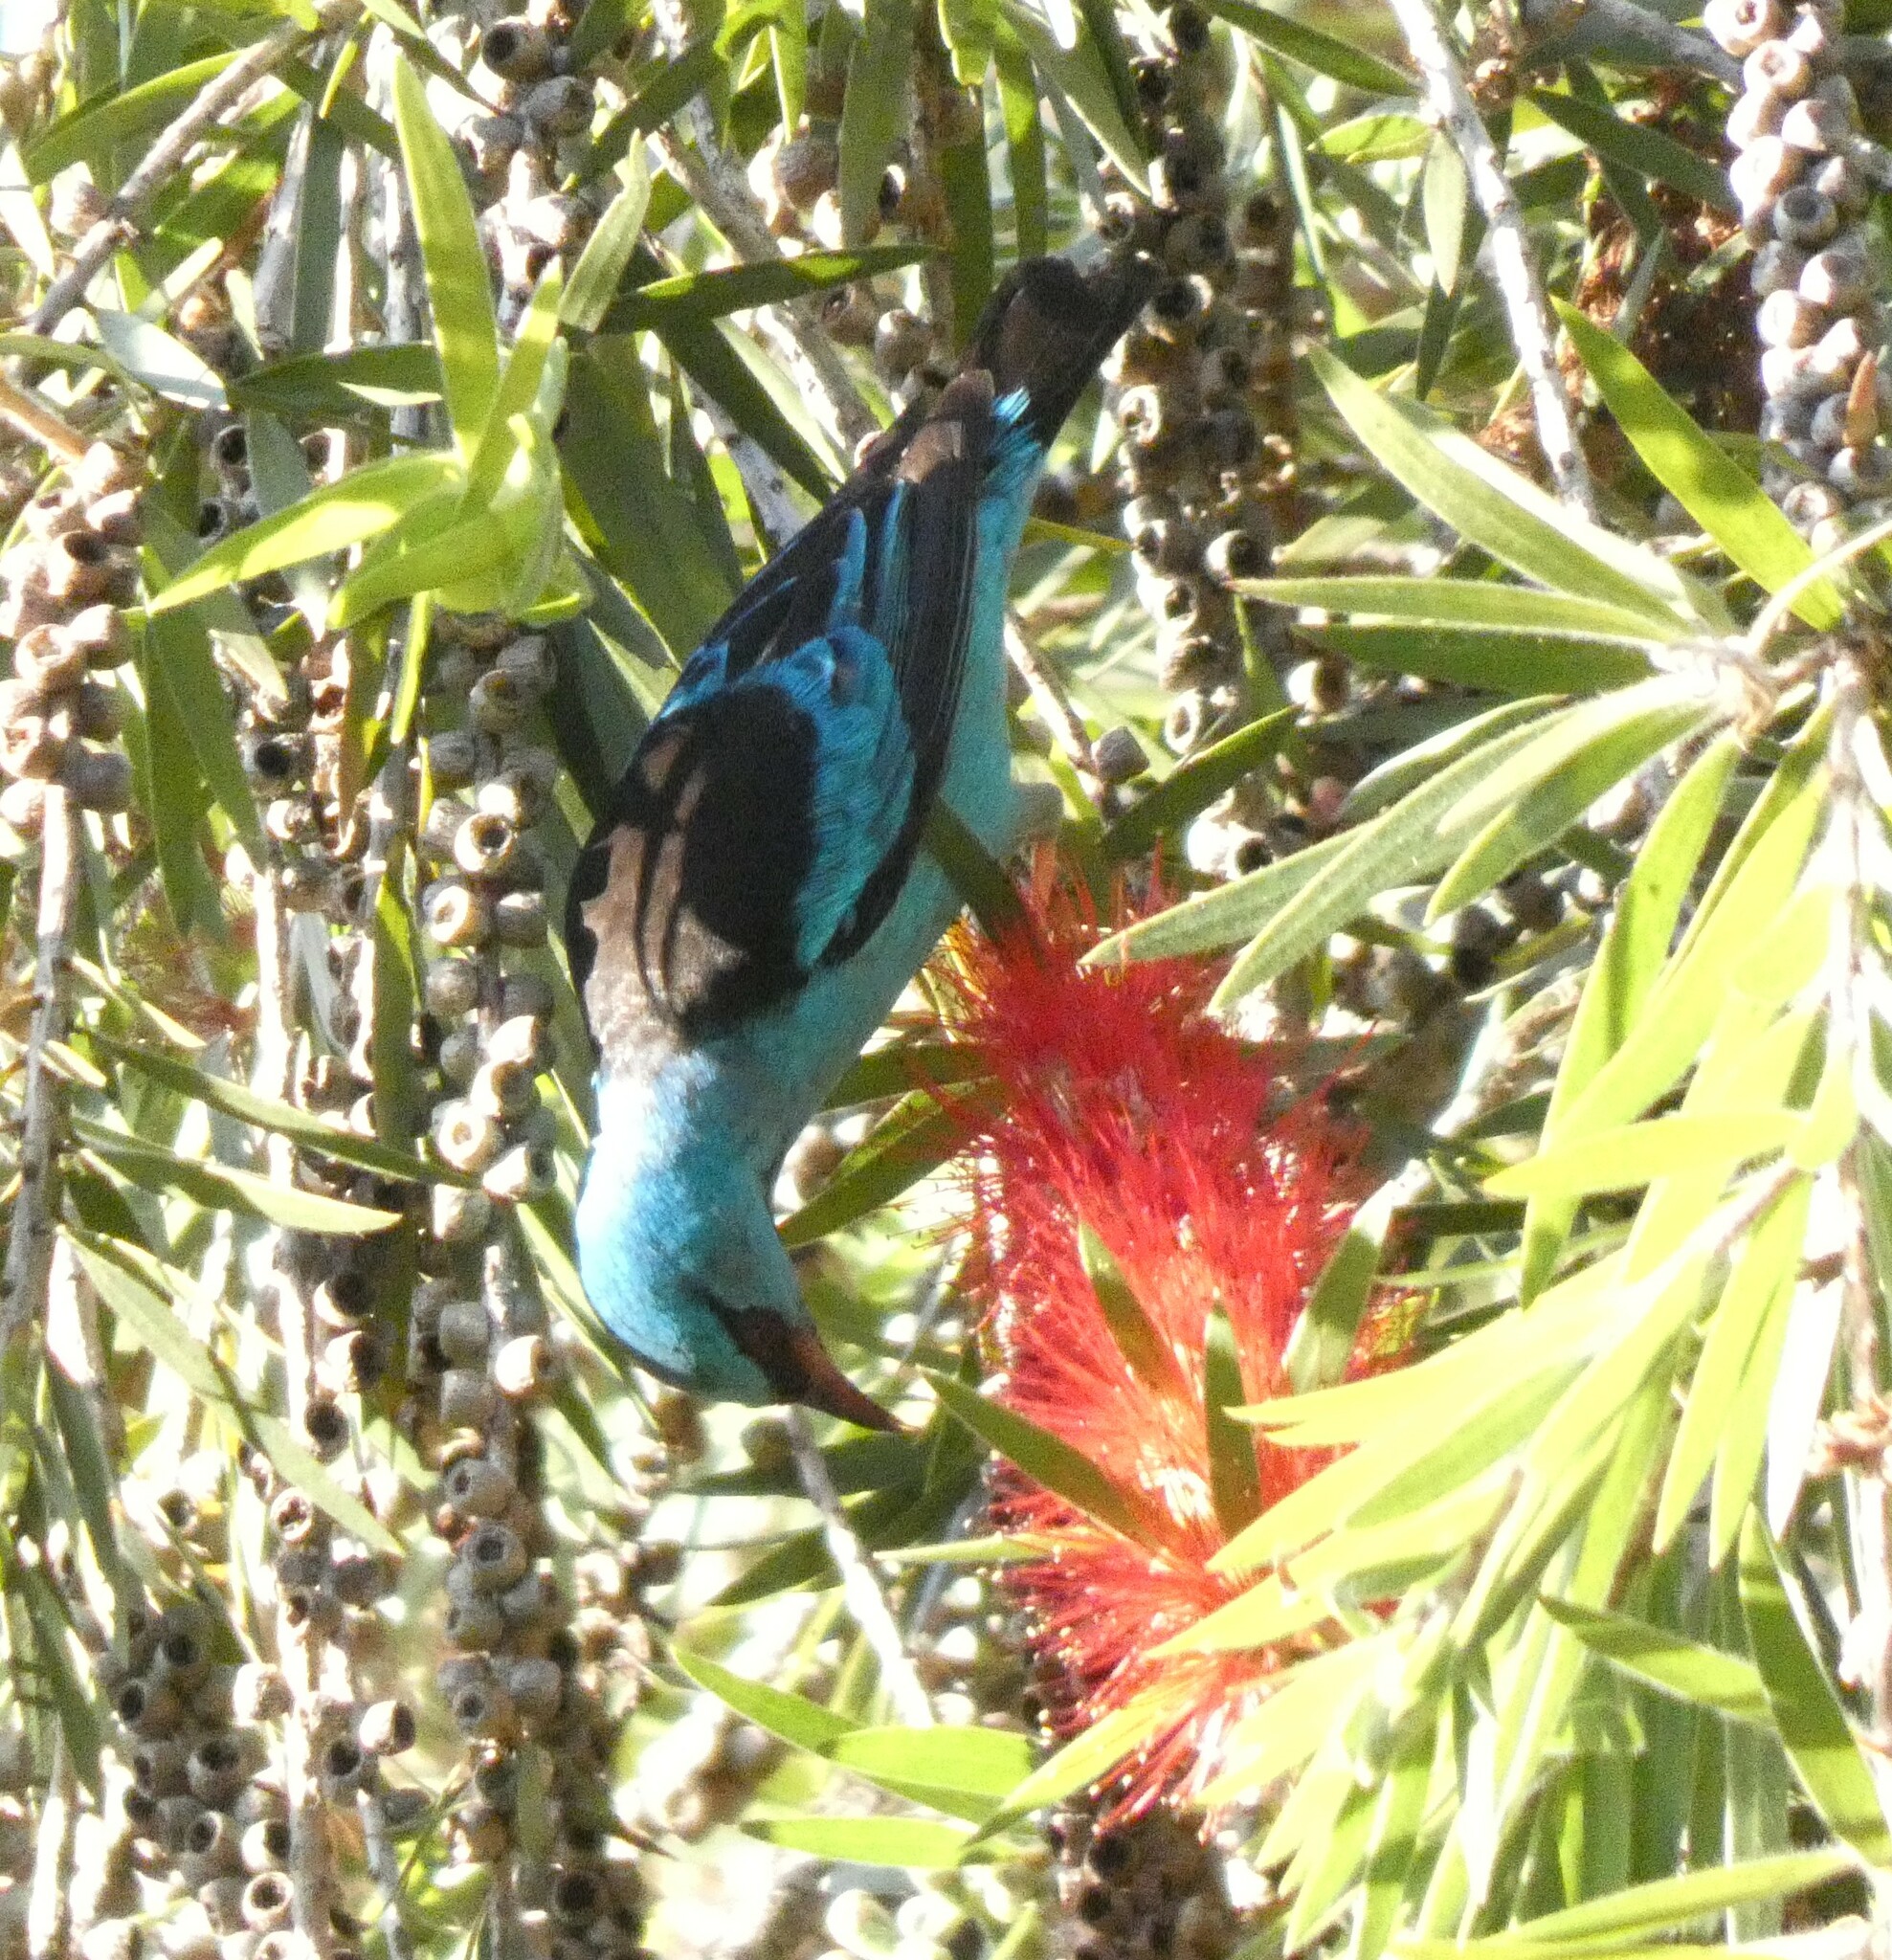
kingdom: Animalia
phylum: Chordata
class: Aves
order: Passeriformes
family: Thraupidae
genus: Dacnis
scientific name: Dacnis cayana
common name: Blue dacnis
